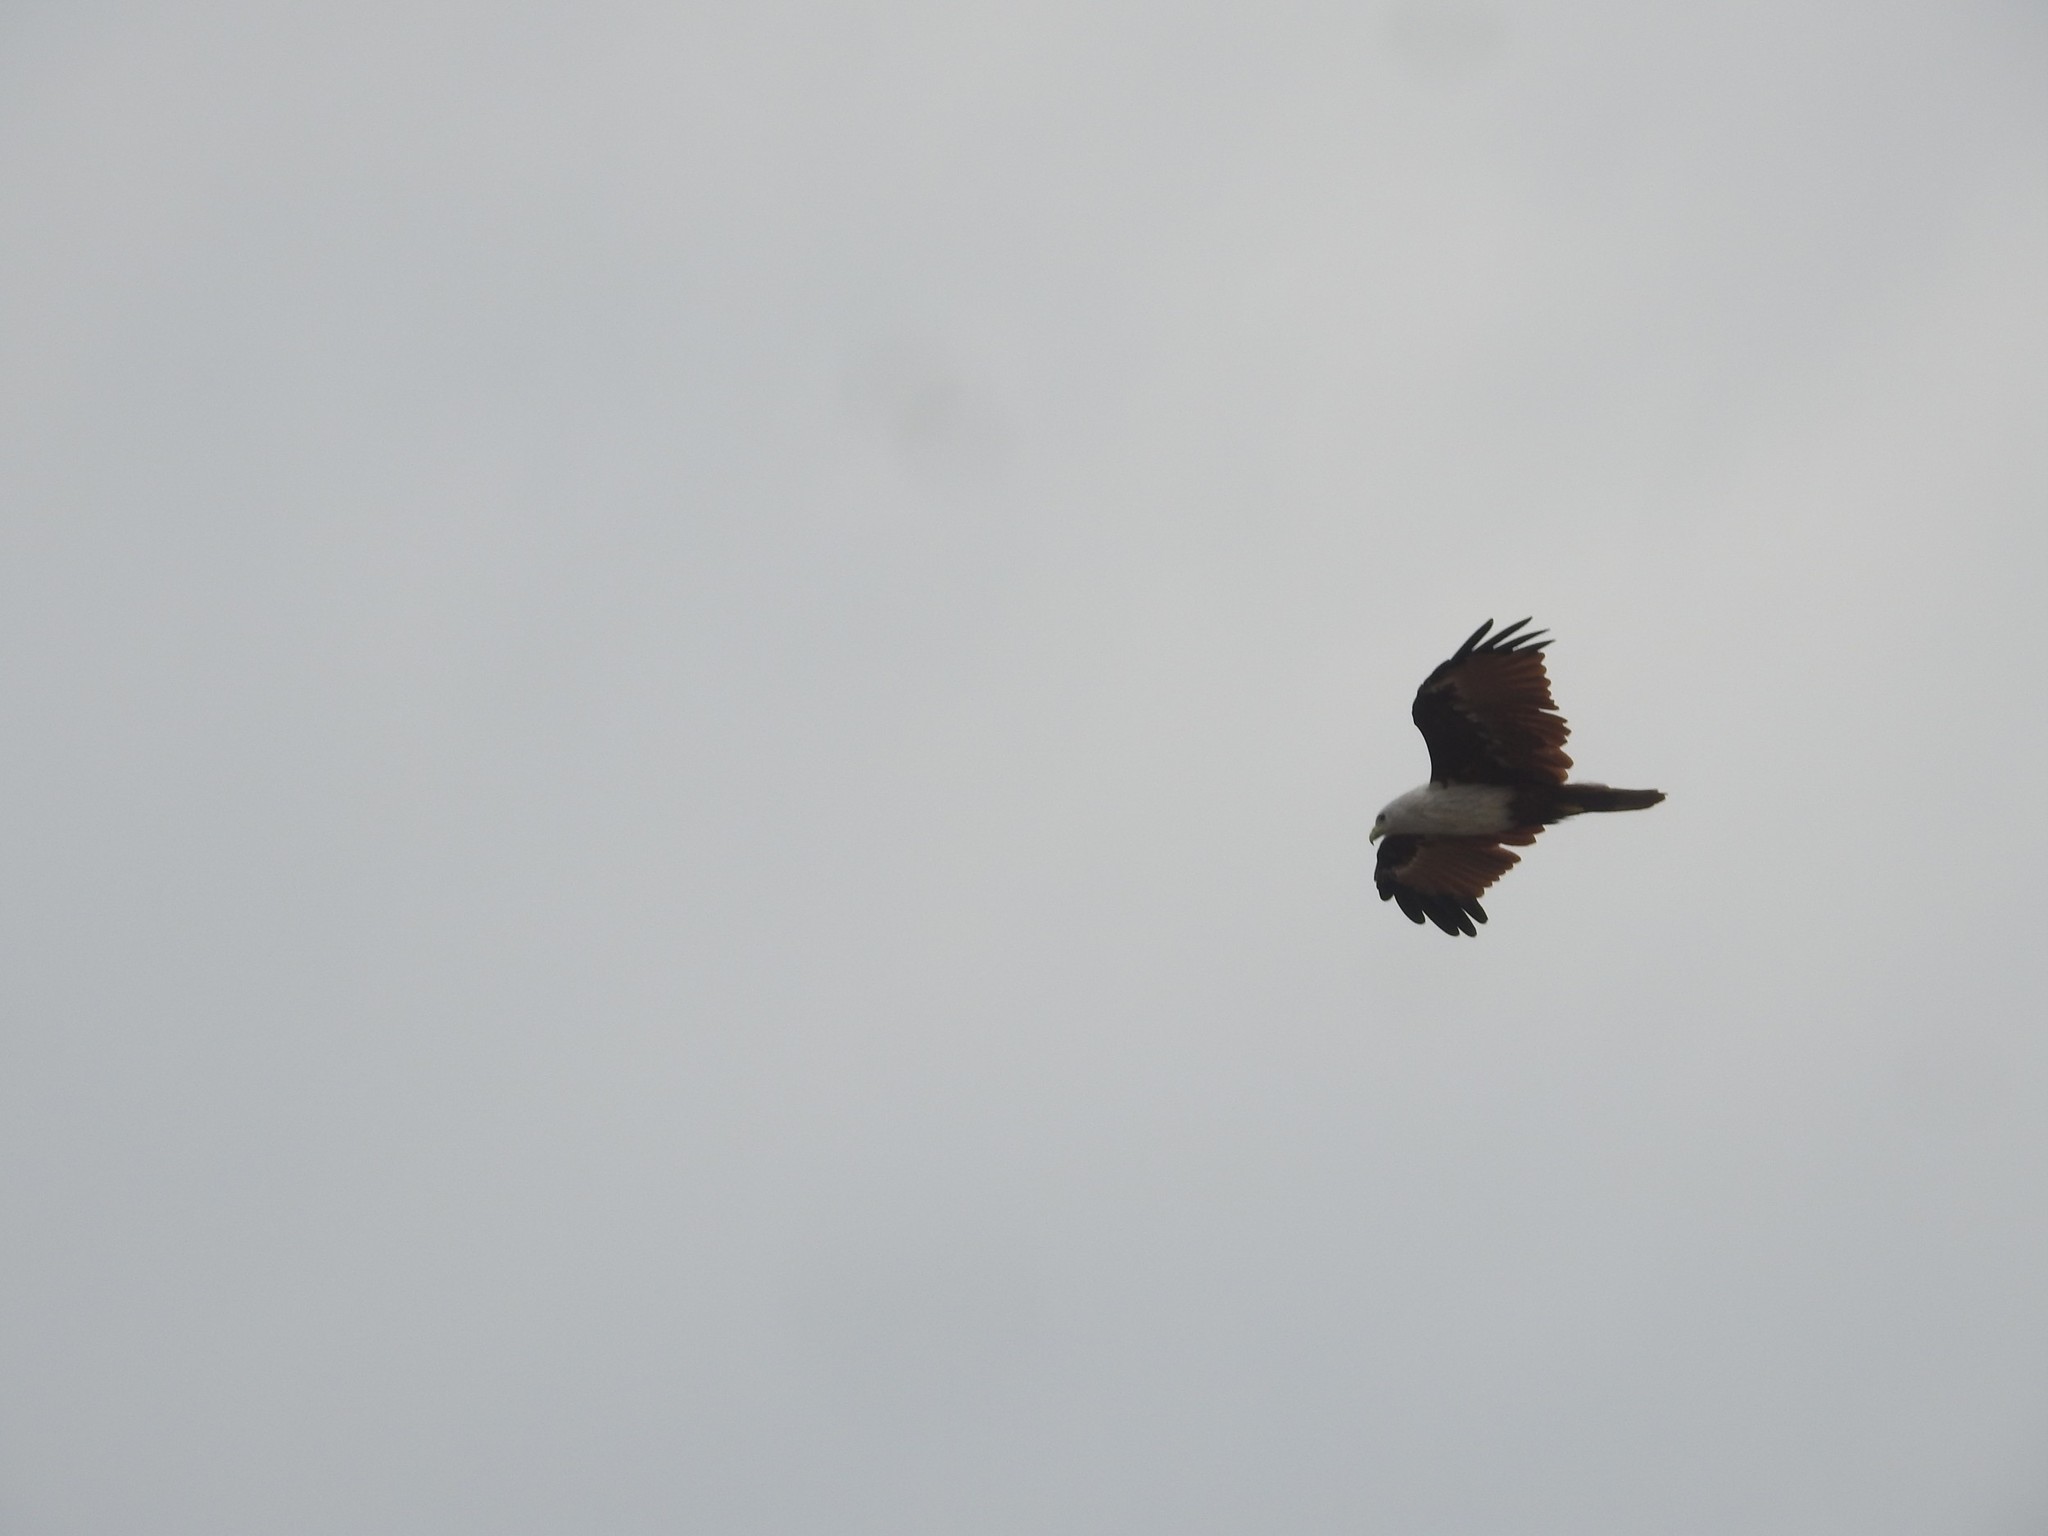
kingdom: Animalia
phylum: Chordata
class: Aves
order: Accipitriformes
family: Accipitridae
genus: Haliastur
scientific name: Haliastur indus
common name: Brahminy kite
